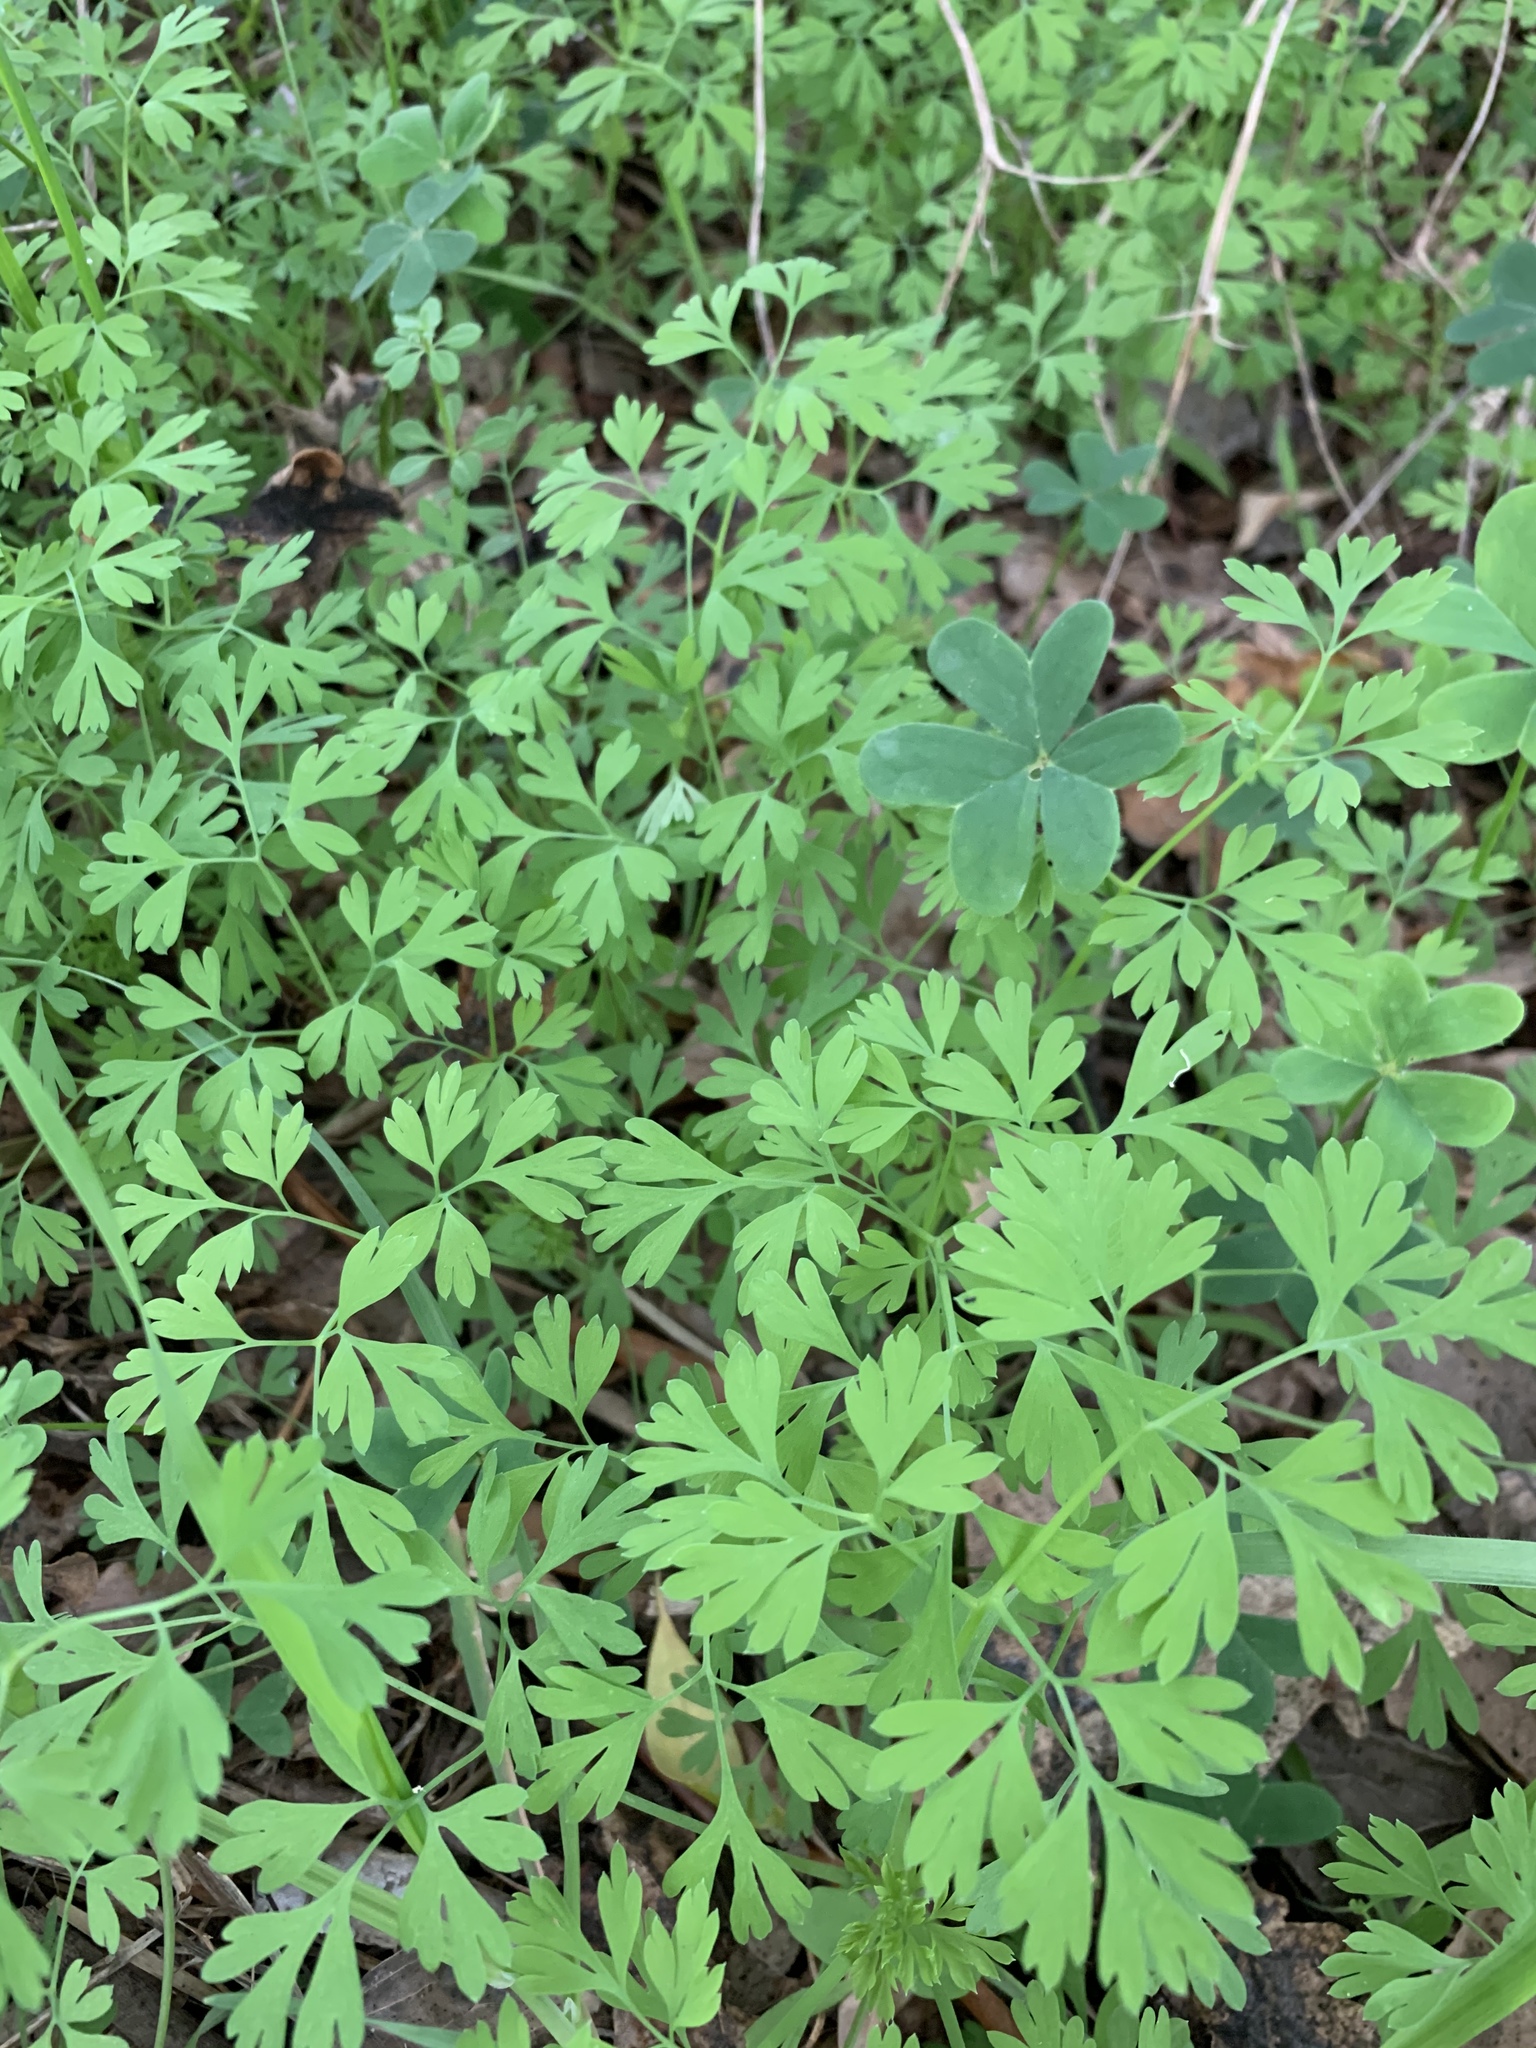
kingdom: Plantae
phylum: Tracheophyta
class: Magnoliopsida
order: Ranunculales
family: Papaveraceae
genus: Fumaria
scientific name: Fumaria muralis
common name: Common ramping-fumitory
